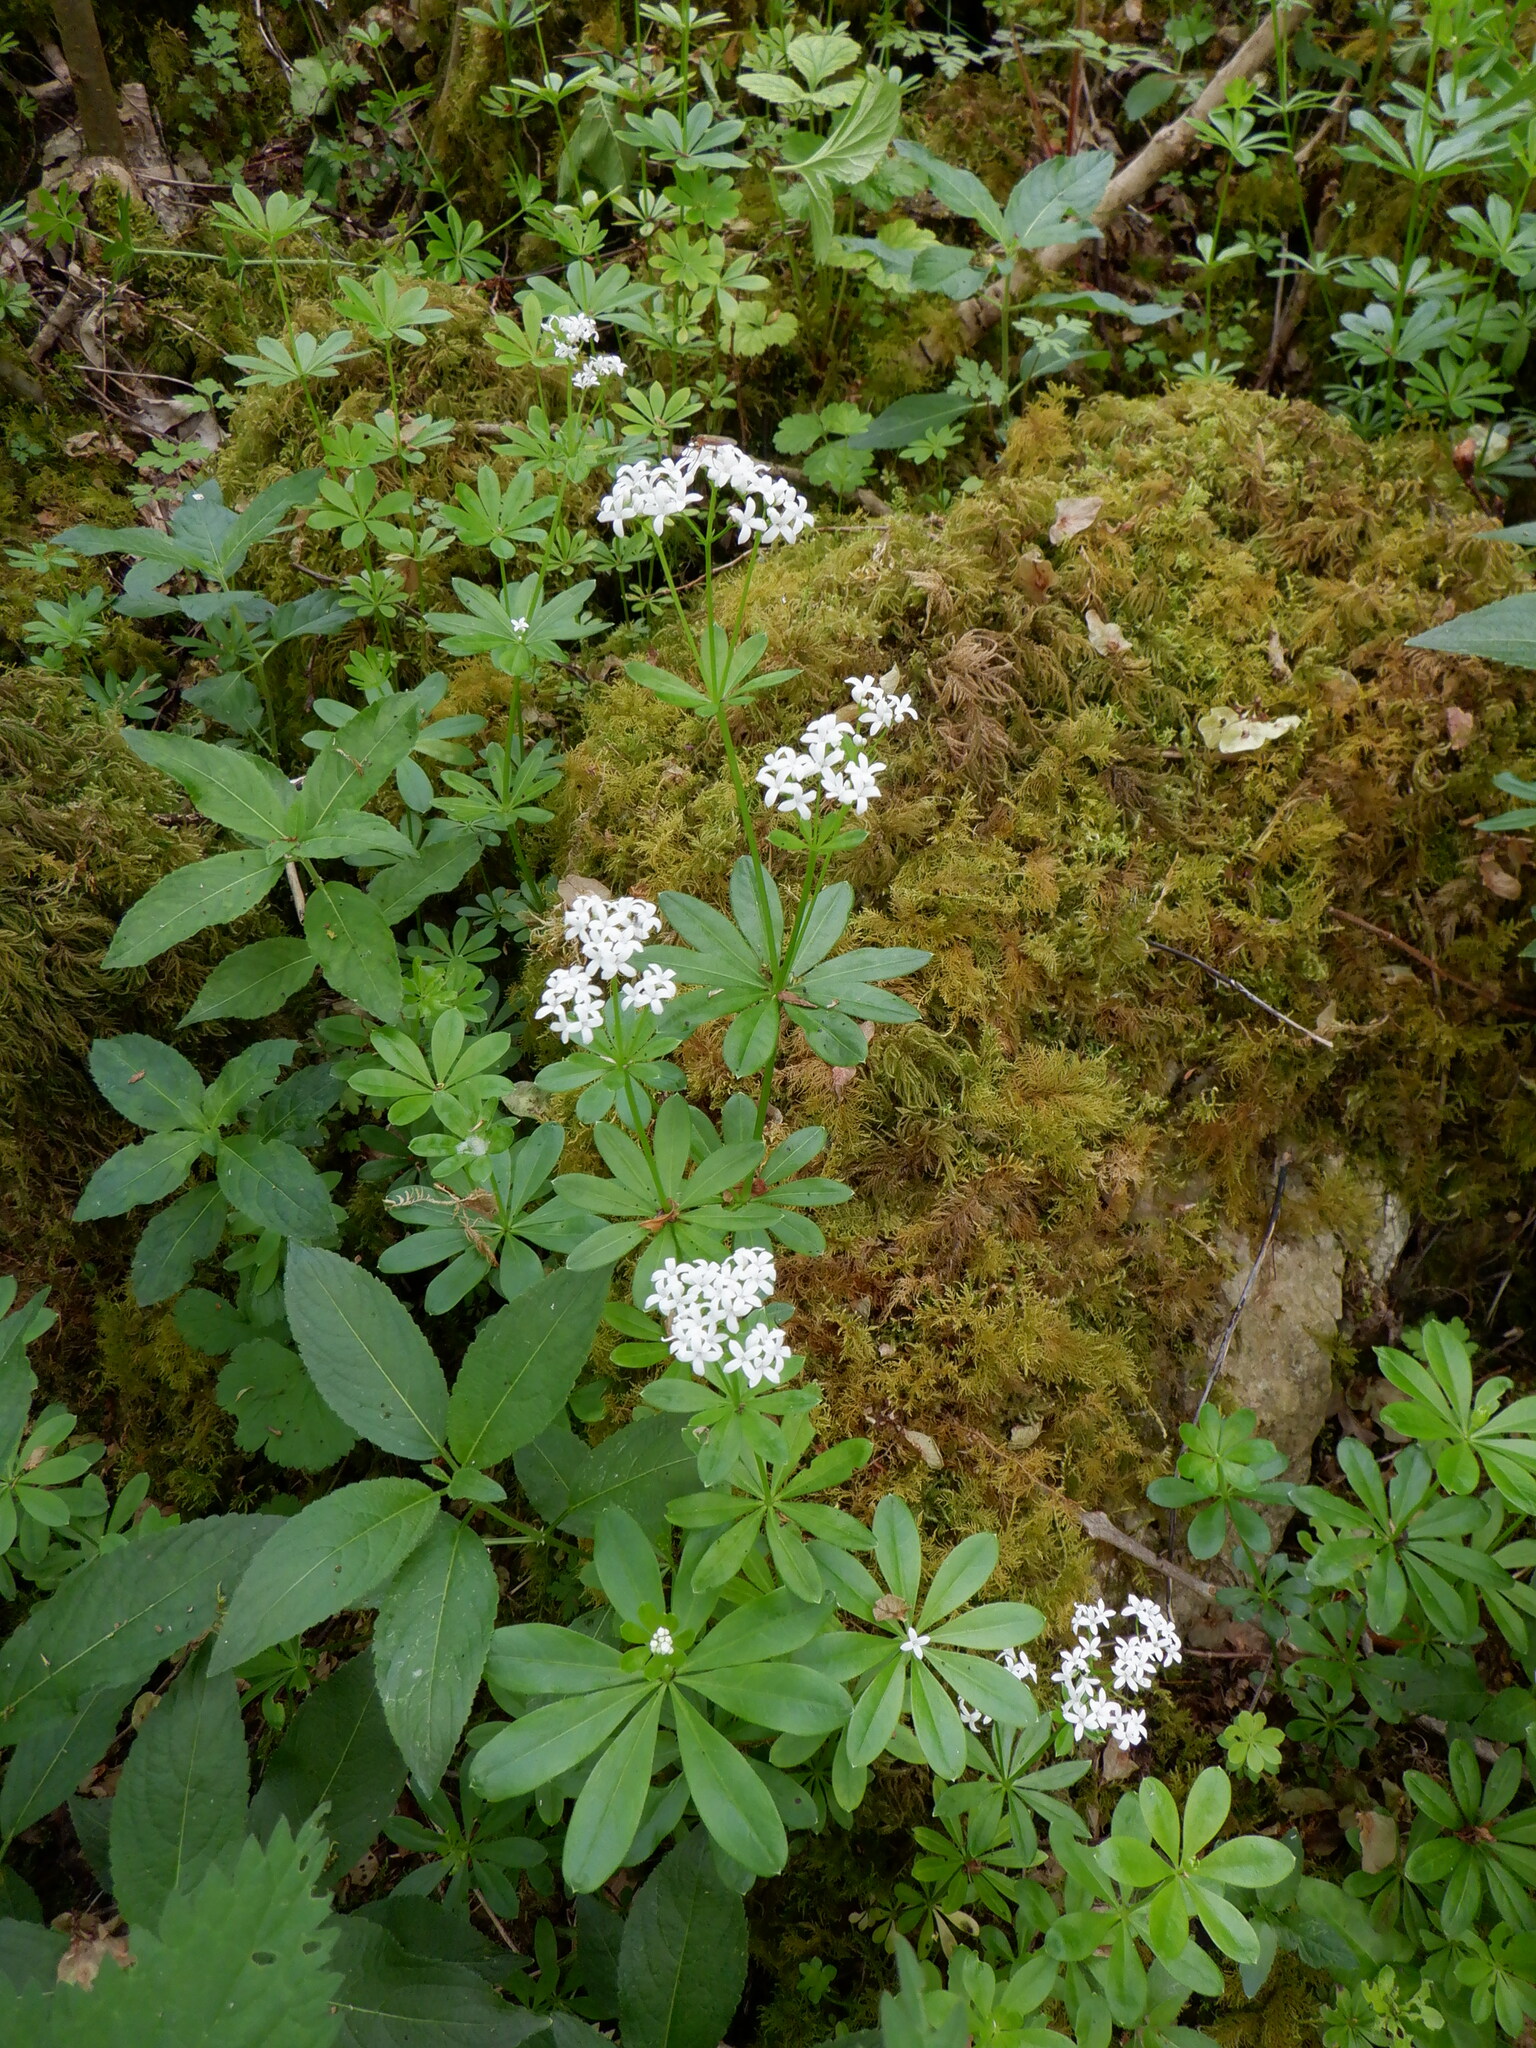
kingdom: Plantae
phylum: Tracheophyta
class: Magnoliopsida
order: Gentianales
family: Rubiaceae
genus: Galium
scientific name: Galium odoratum
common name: Sweet woodruff
